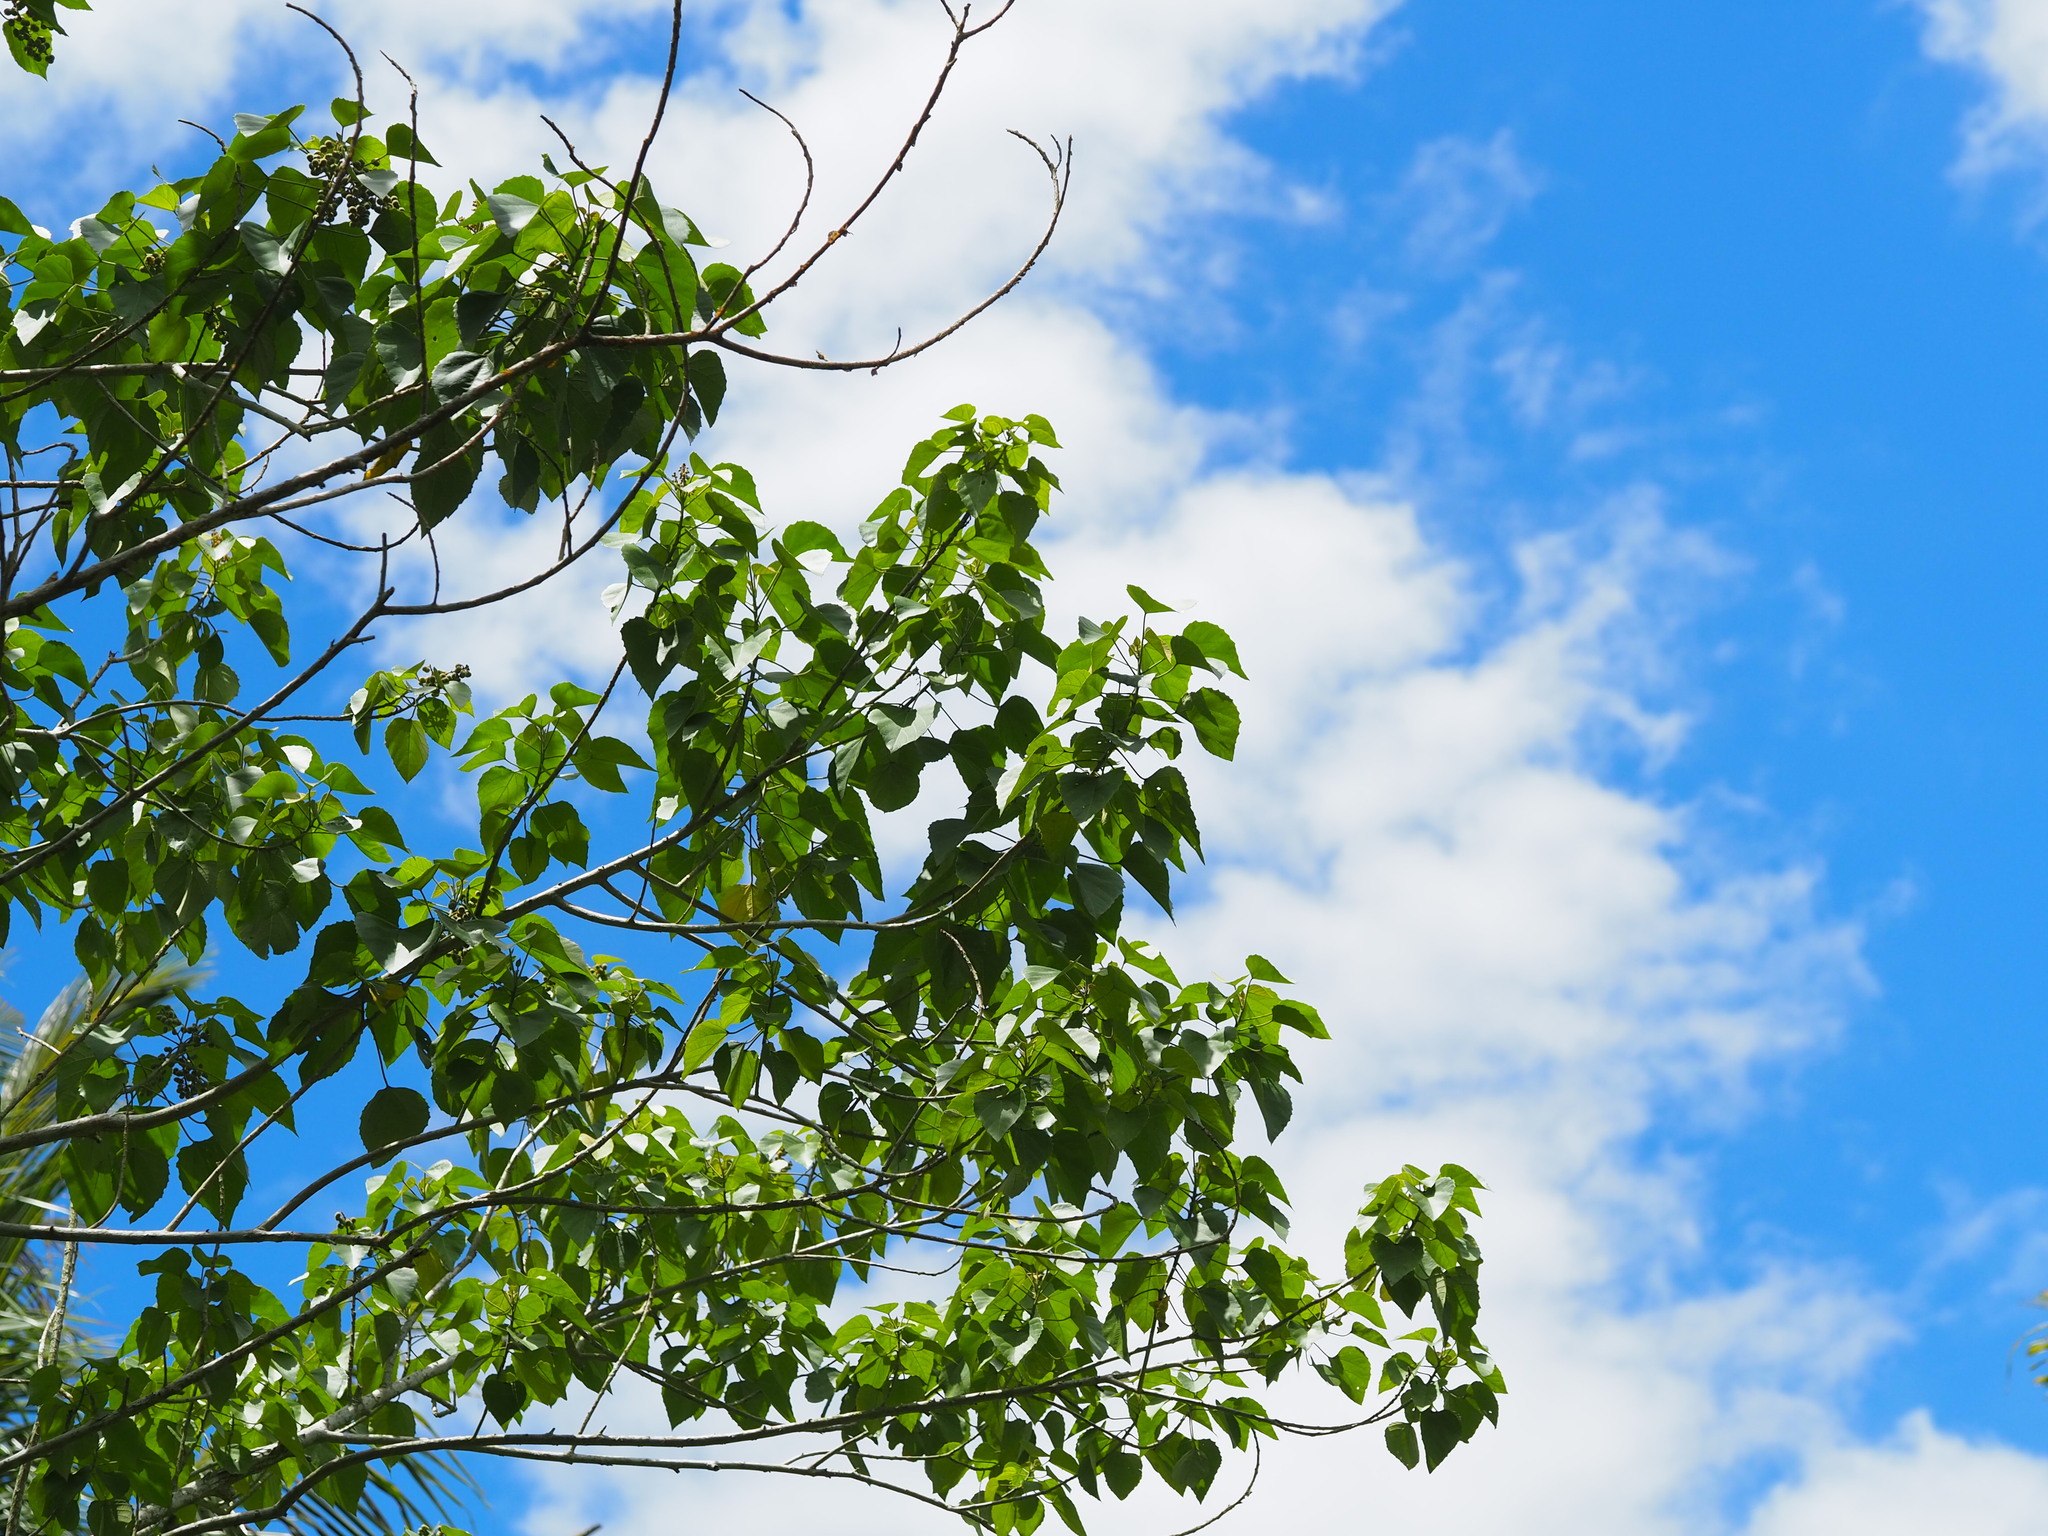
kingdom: Plantae
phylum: Tracheophyta
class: Magnoliopsida
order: Malpighiales
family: Euphorbiaceae
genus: Melanolepis
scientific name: Melanolepis multiglandulosa
